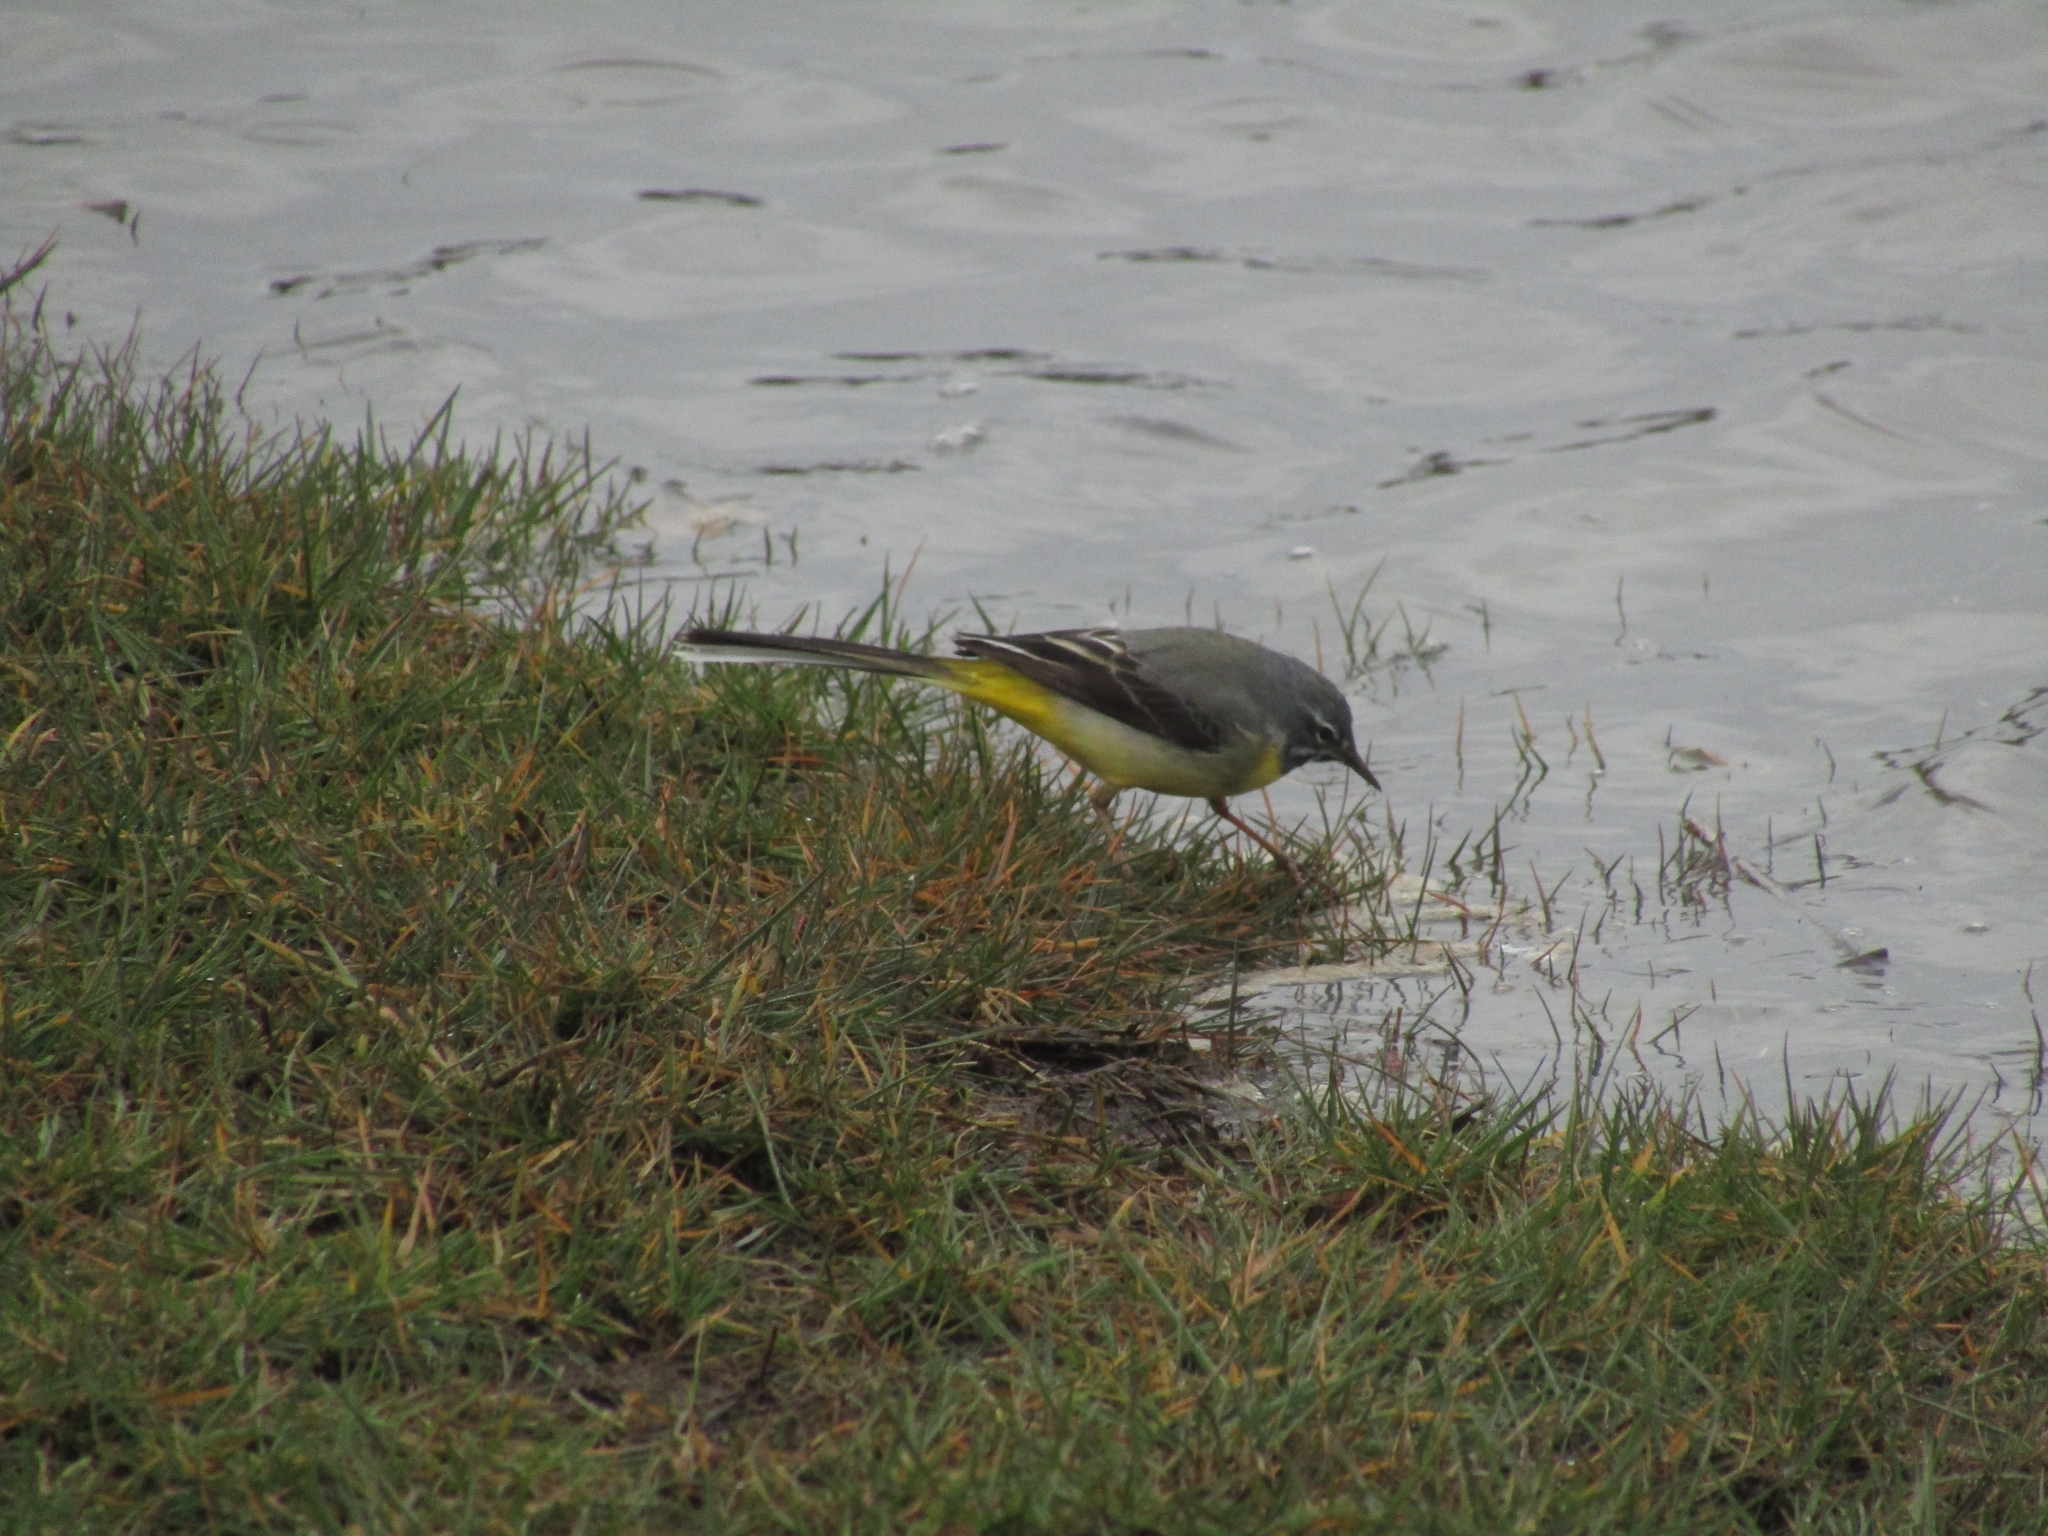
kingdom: Animalia
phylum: Chordata
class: Aves
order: Passeriformes
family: Motacillidae
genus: Motacilla
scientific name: Motacilla cinerea
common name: Grey wagtail
